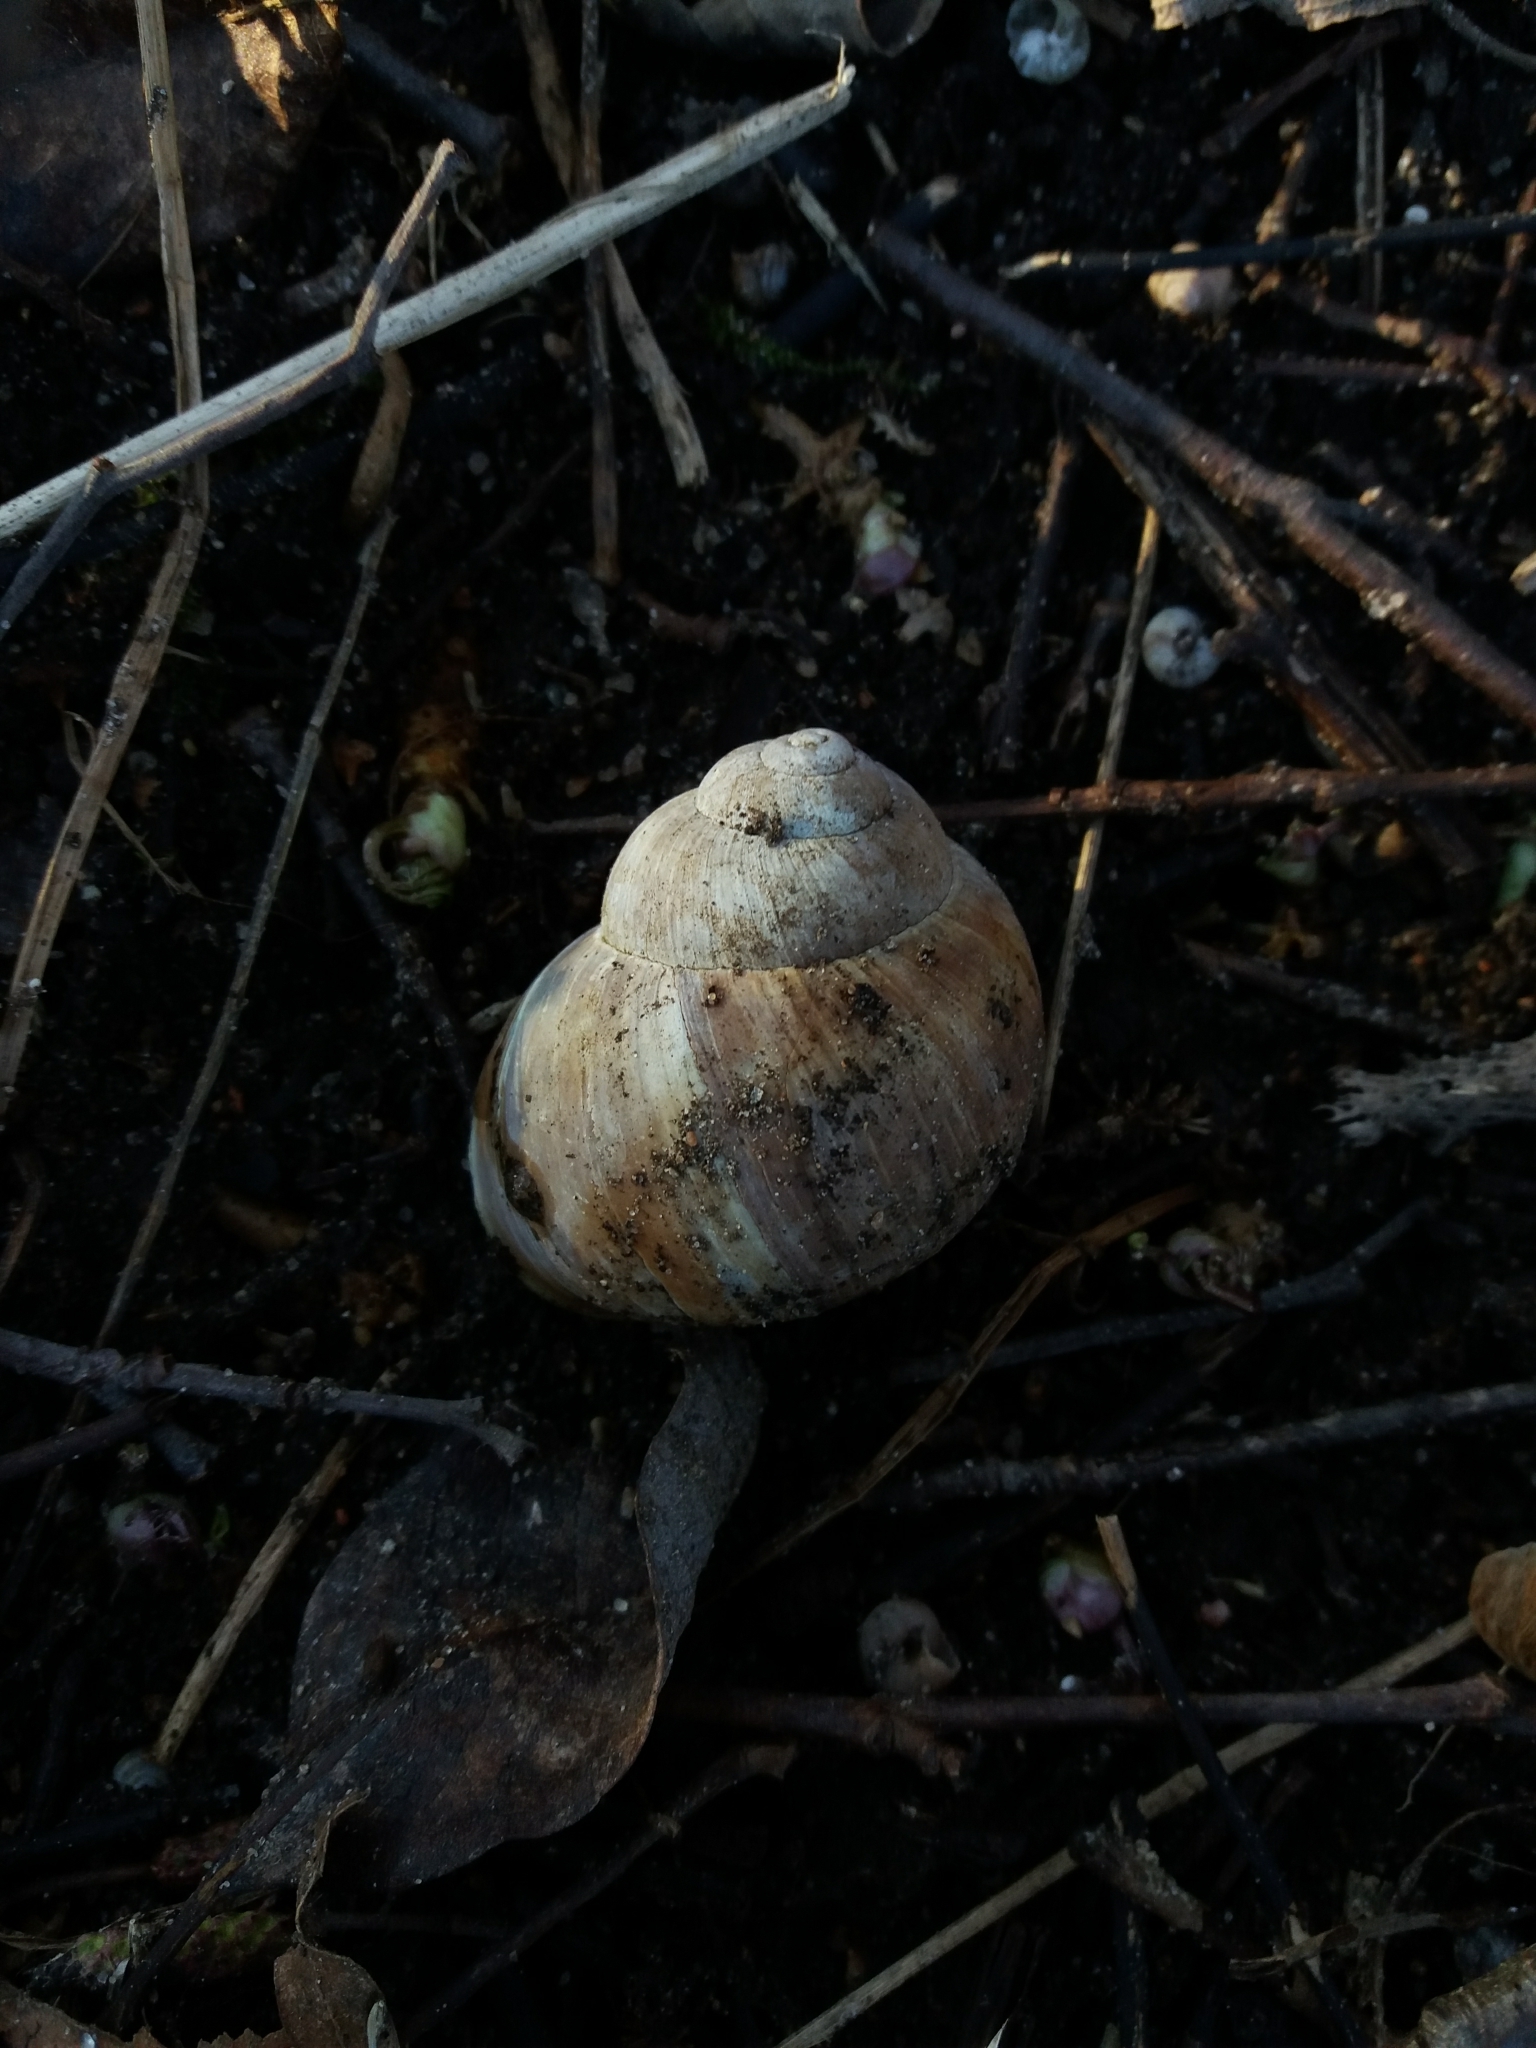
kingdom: Animalia
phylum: Mollusca
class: Gastropoda
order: Stylommatophora
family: Helicidae
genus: Helix
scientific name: Helix pomatia
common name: Roman snail
